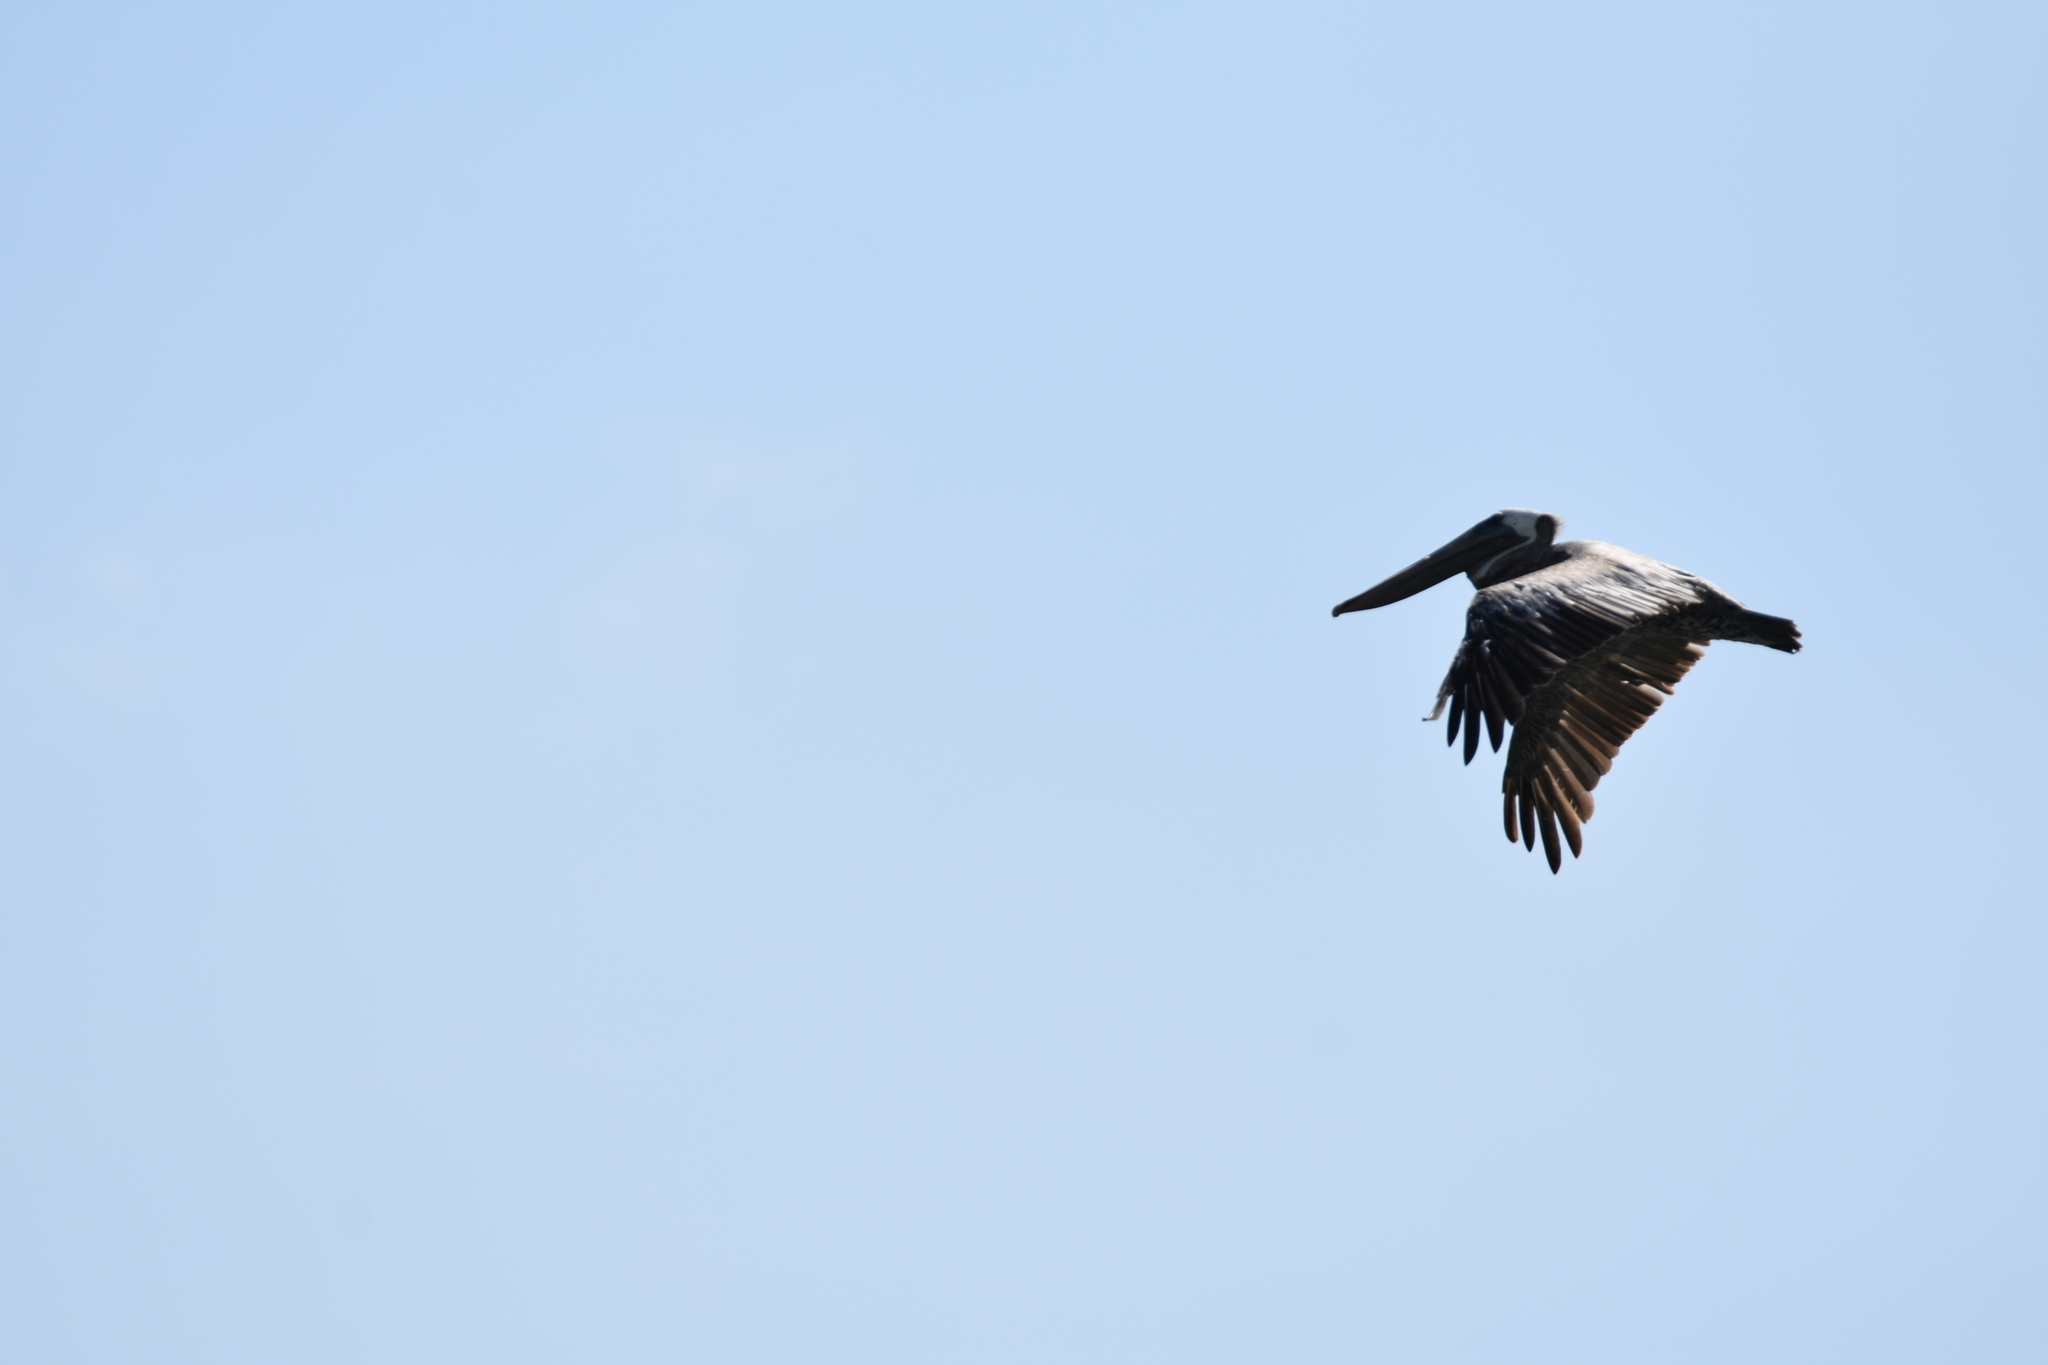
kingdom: Animalia
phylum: Chordata
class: Aves
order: Pelecaniformes
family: Pelecanidae
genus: Pelecanus
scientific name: Pelecanus occidentalis
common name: Brown pelican
